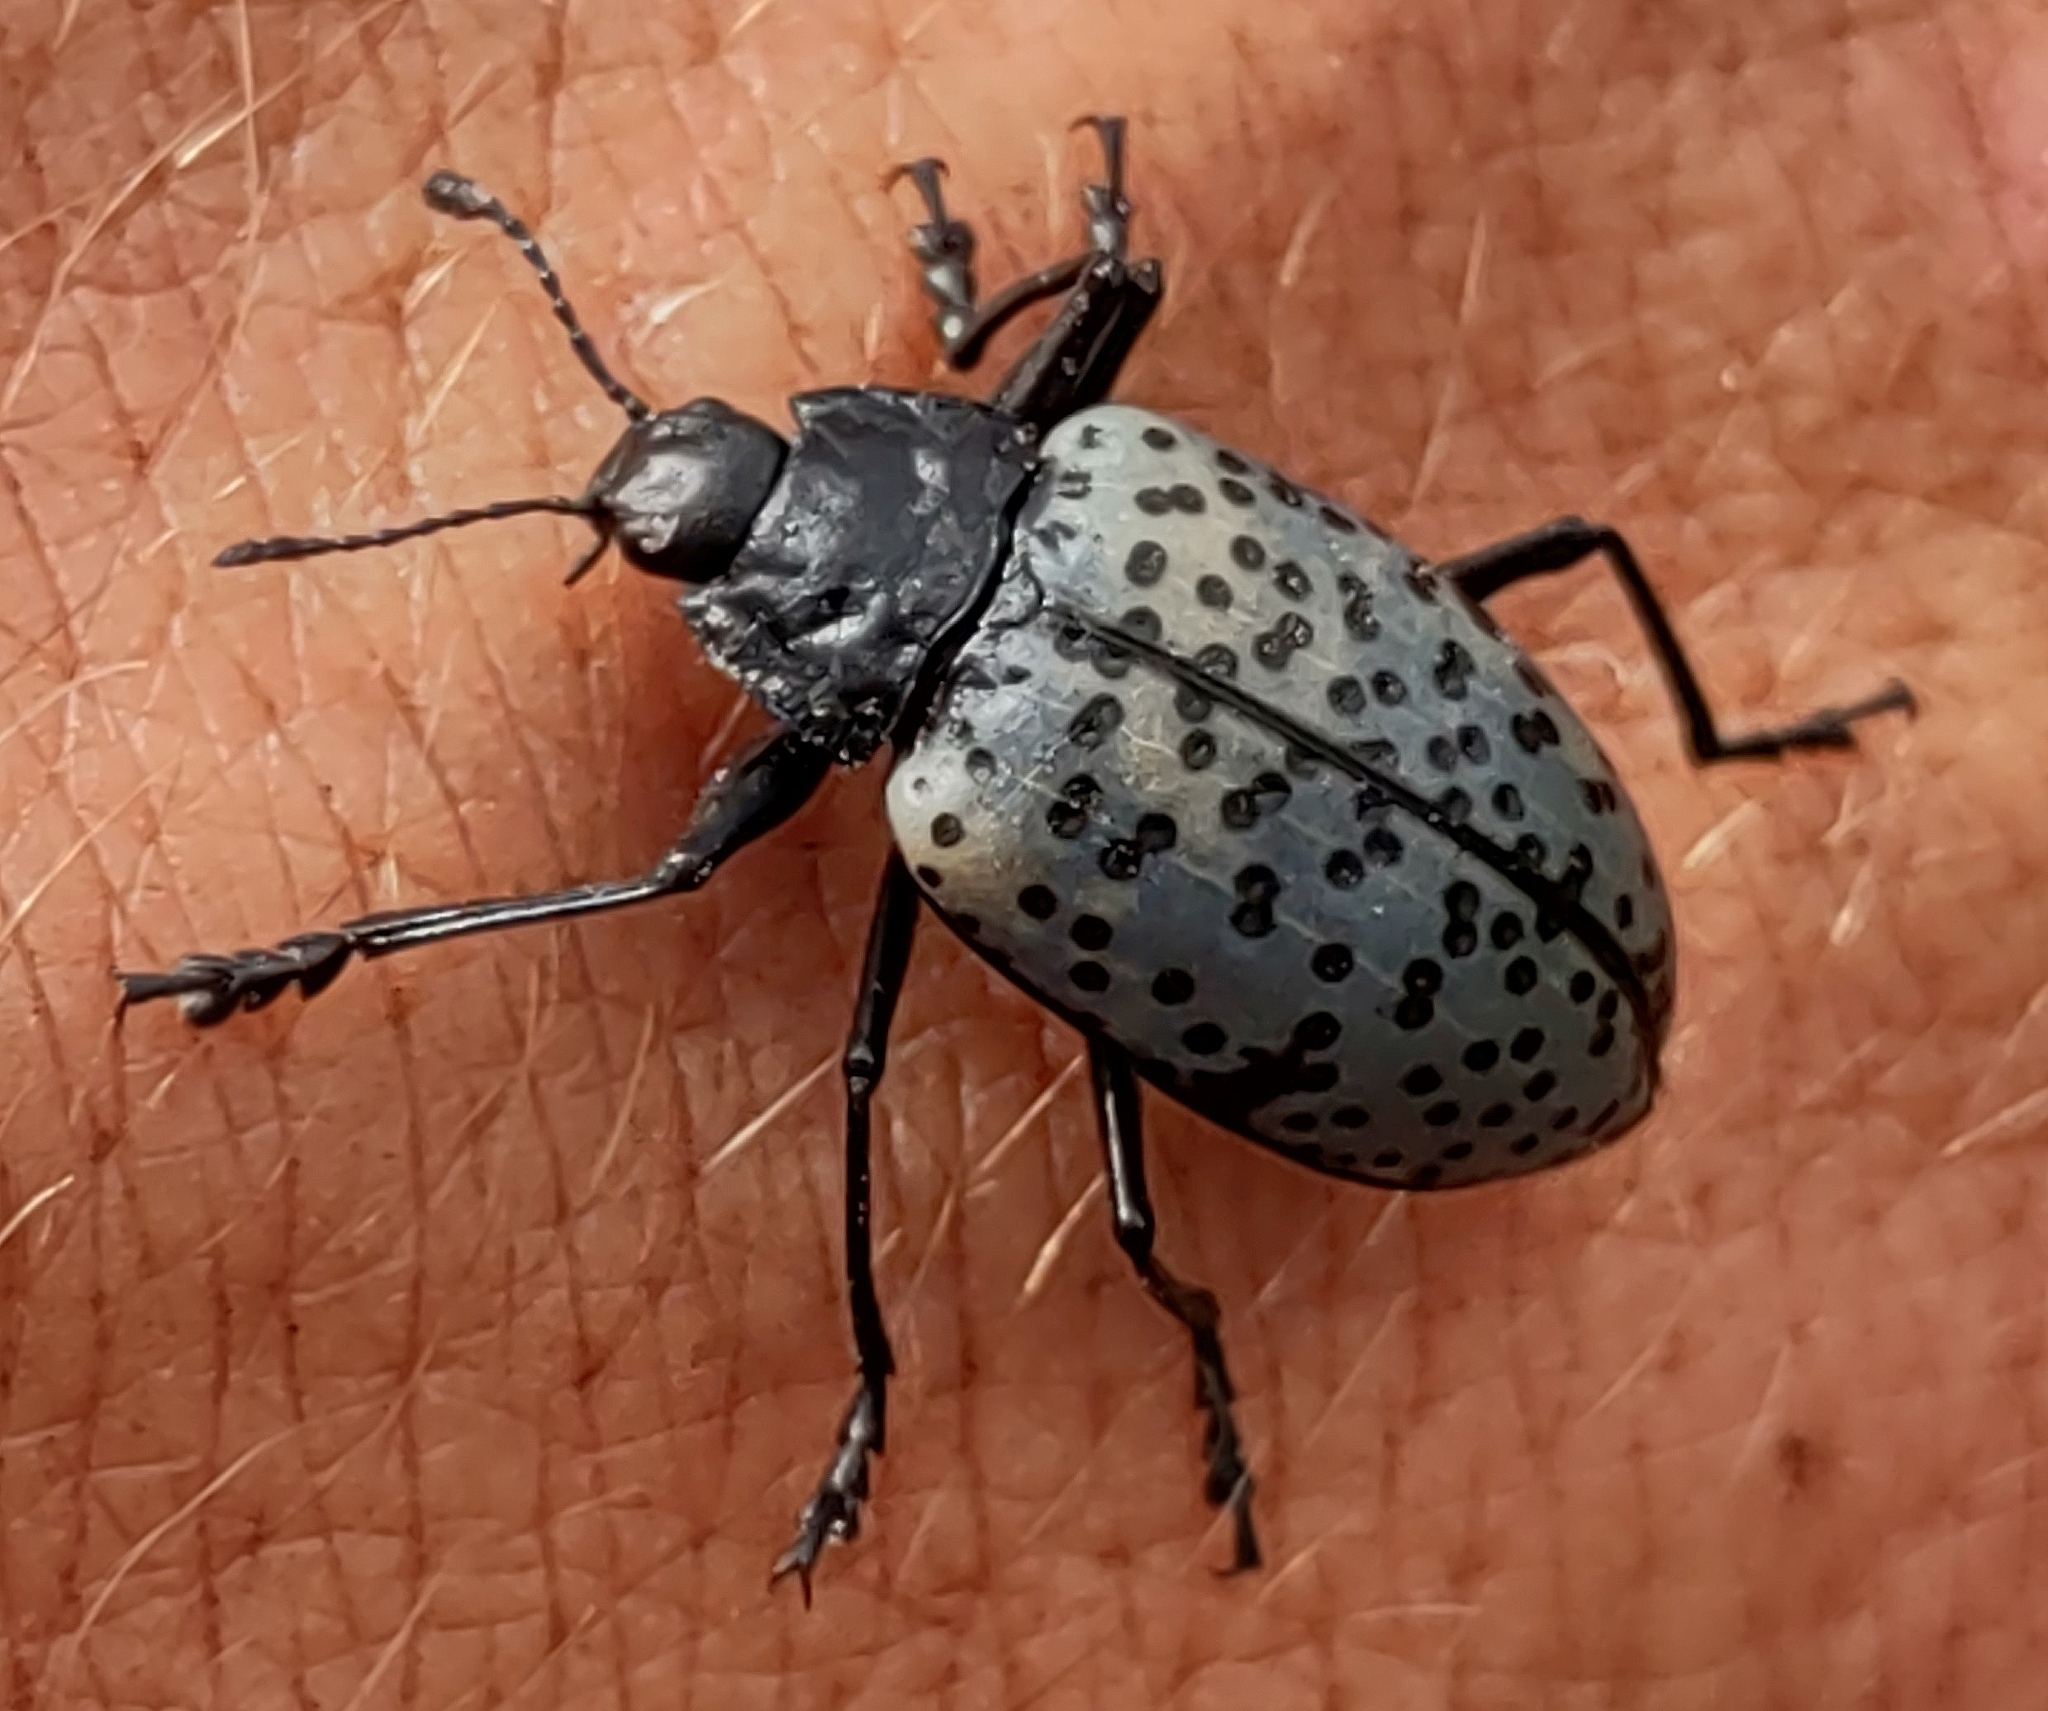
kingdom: Animalia
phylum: Arthropoda
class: Insecta
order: Coleoptera
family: Erotylidae
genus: Gibbifer
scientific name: Gibbifer californicus
